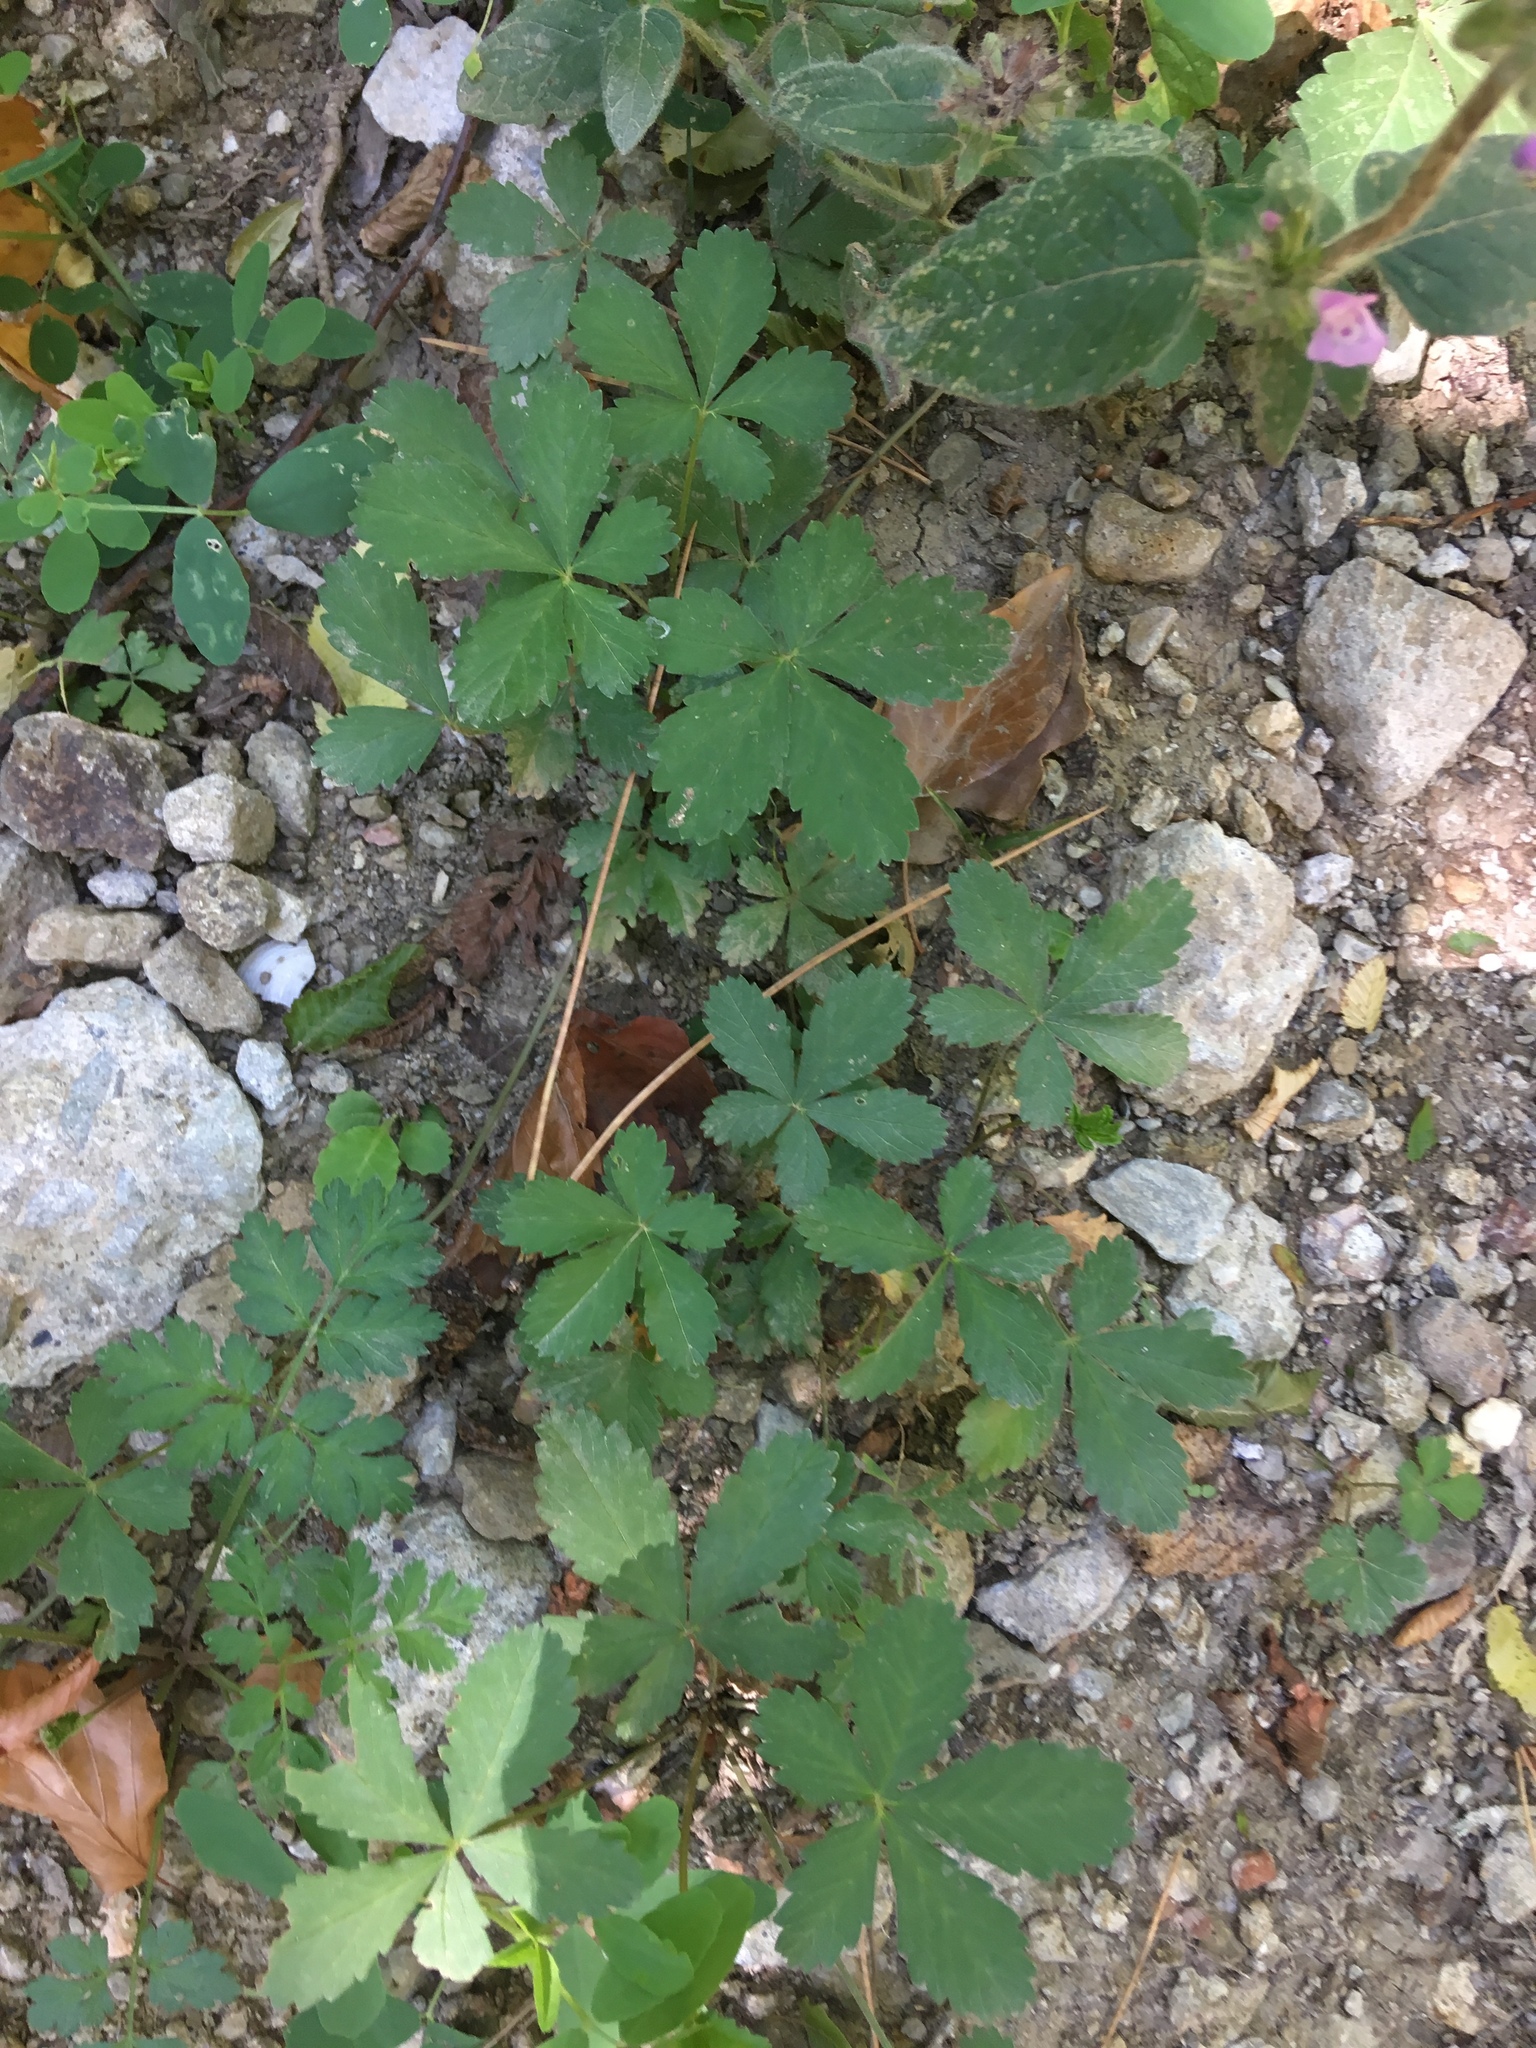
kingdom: Plantae
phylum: Tracheophyta
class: Magnoliopsida
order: Rosales
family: Rosaceae
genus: Potentilla
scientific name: Potentilla reptans
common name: Creeping cinquefoil
